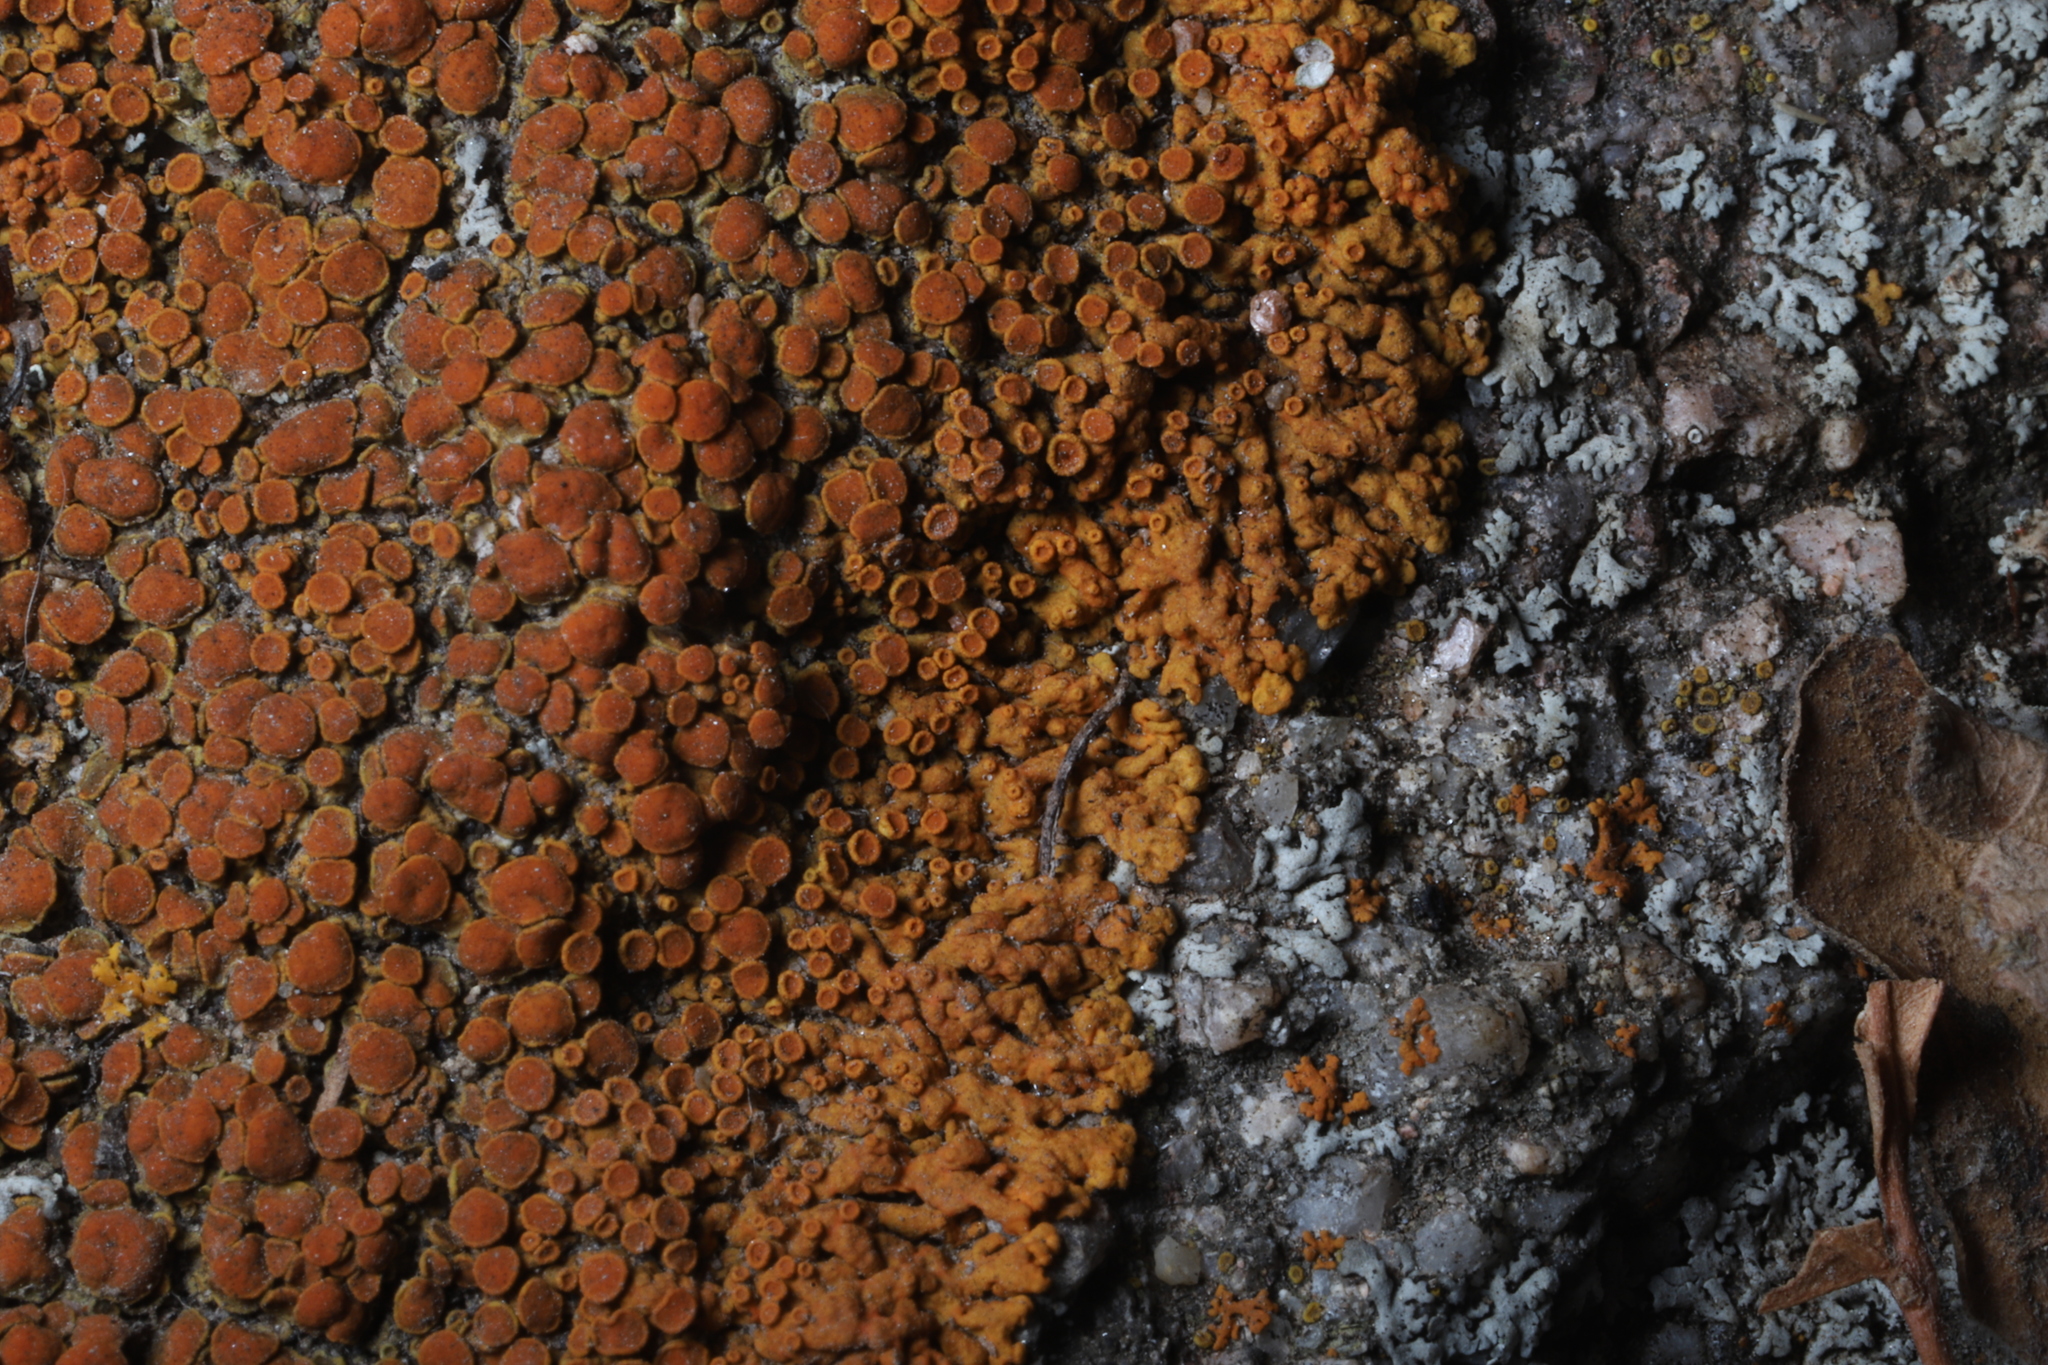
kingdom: Fungi
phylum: Ascomycota
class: Lecanoromycetes
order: Teloschistales
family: Teloschistaceae
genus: Xanthoria
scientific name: Xanthoria elegans
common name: Elegant sunburst lichen
